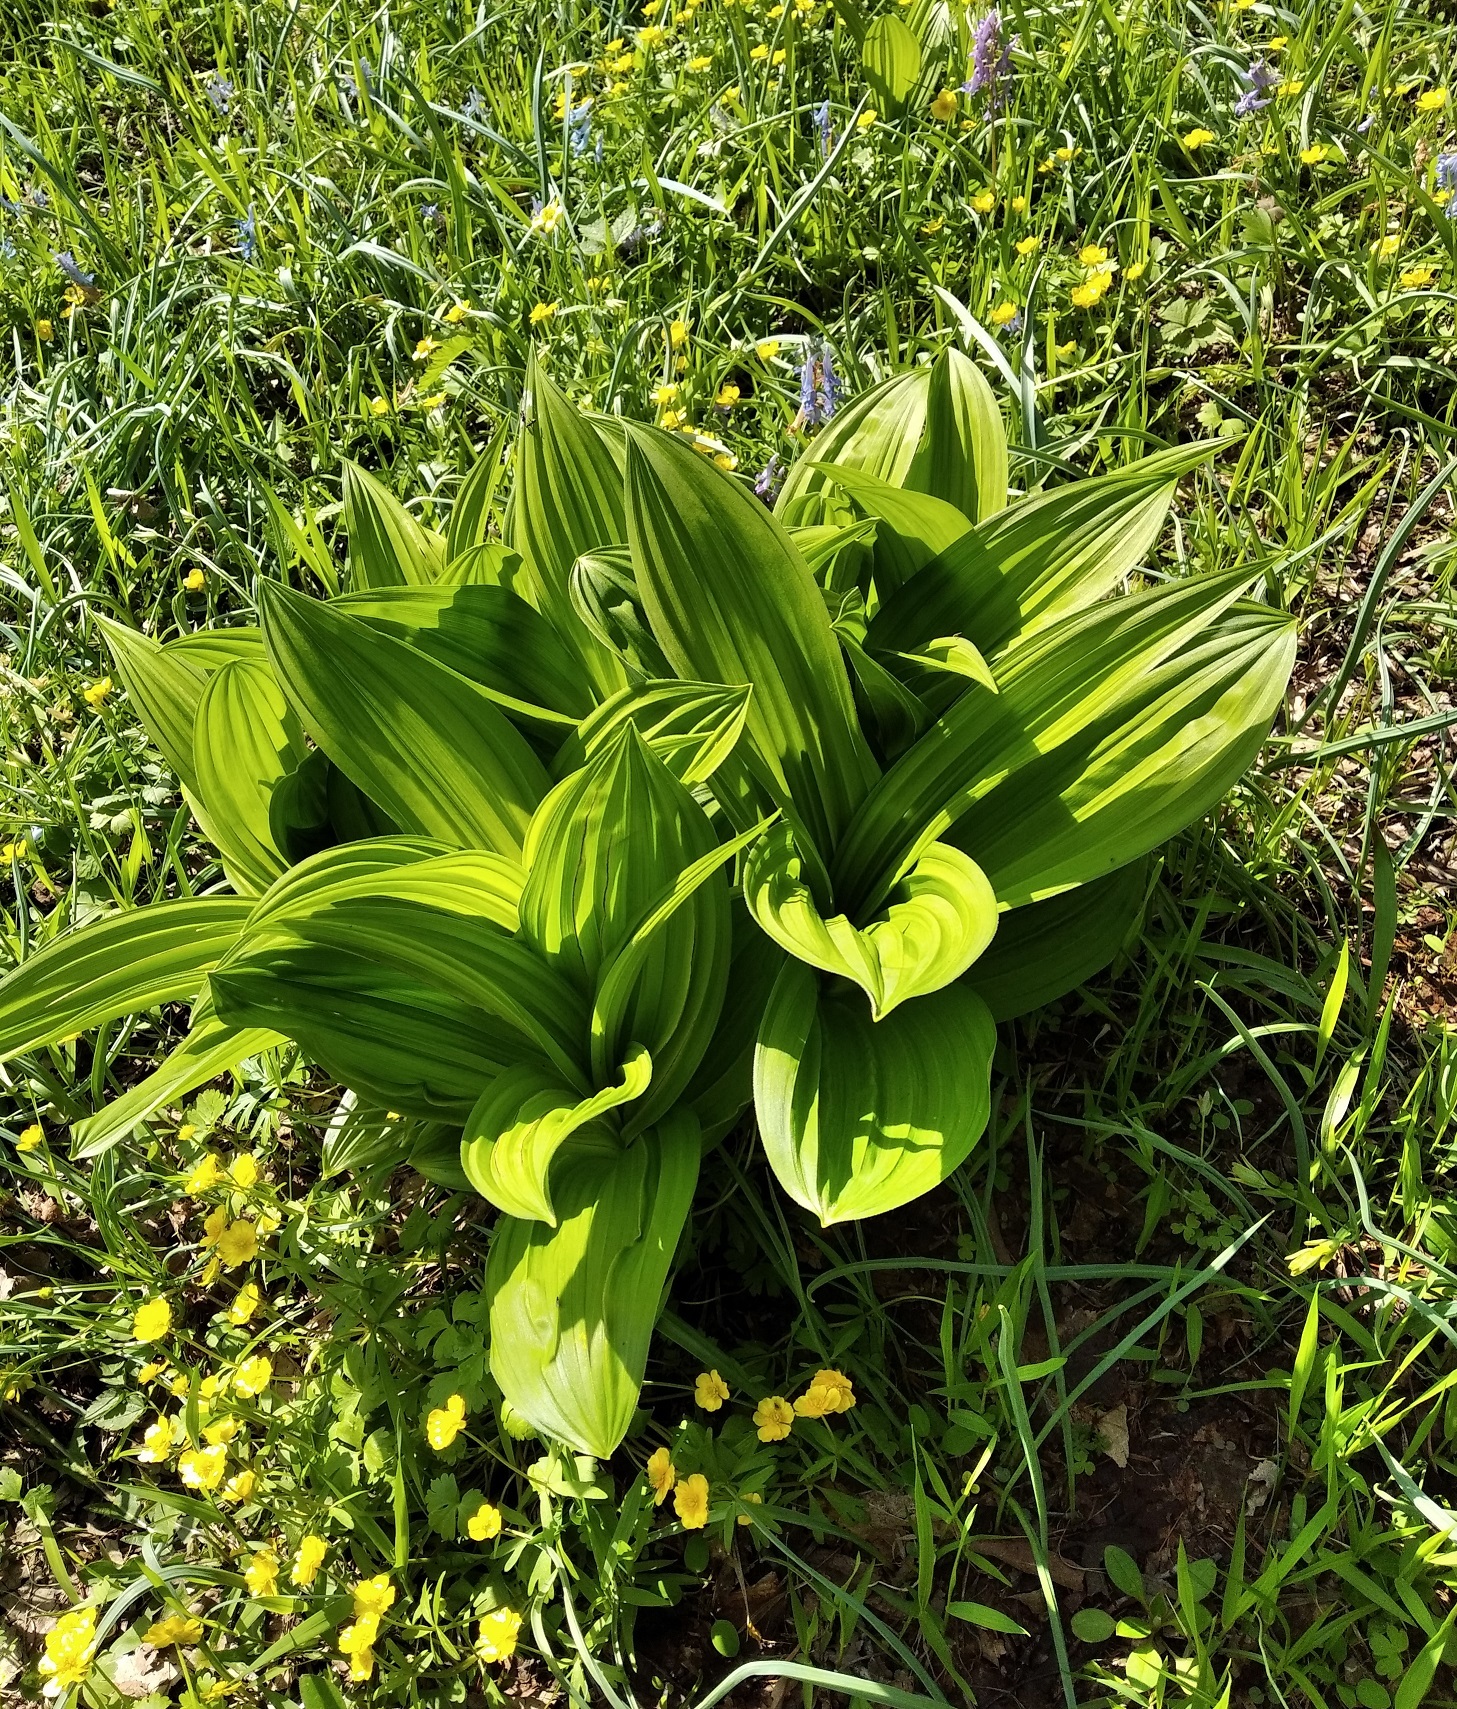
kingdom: Plantae
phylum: Tracheophyta
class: Liliopsida
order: Liliales
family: Melanthiaceae
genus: Veratrum
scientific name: Veratrum dahuricum
